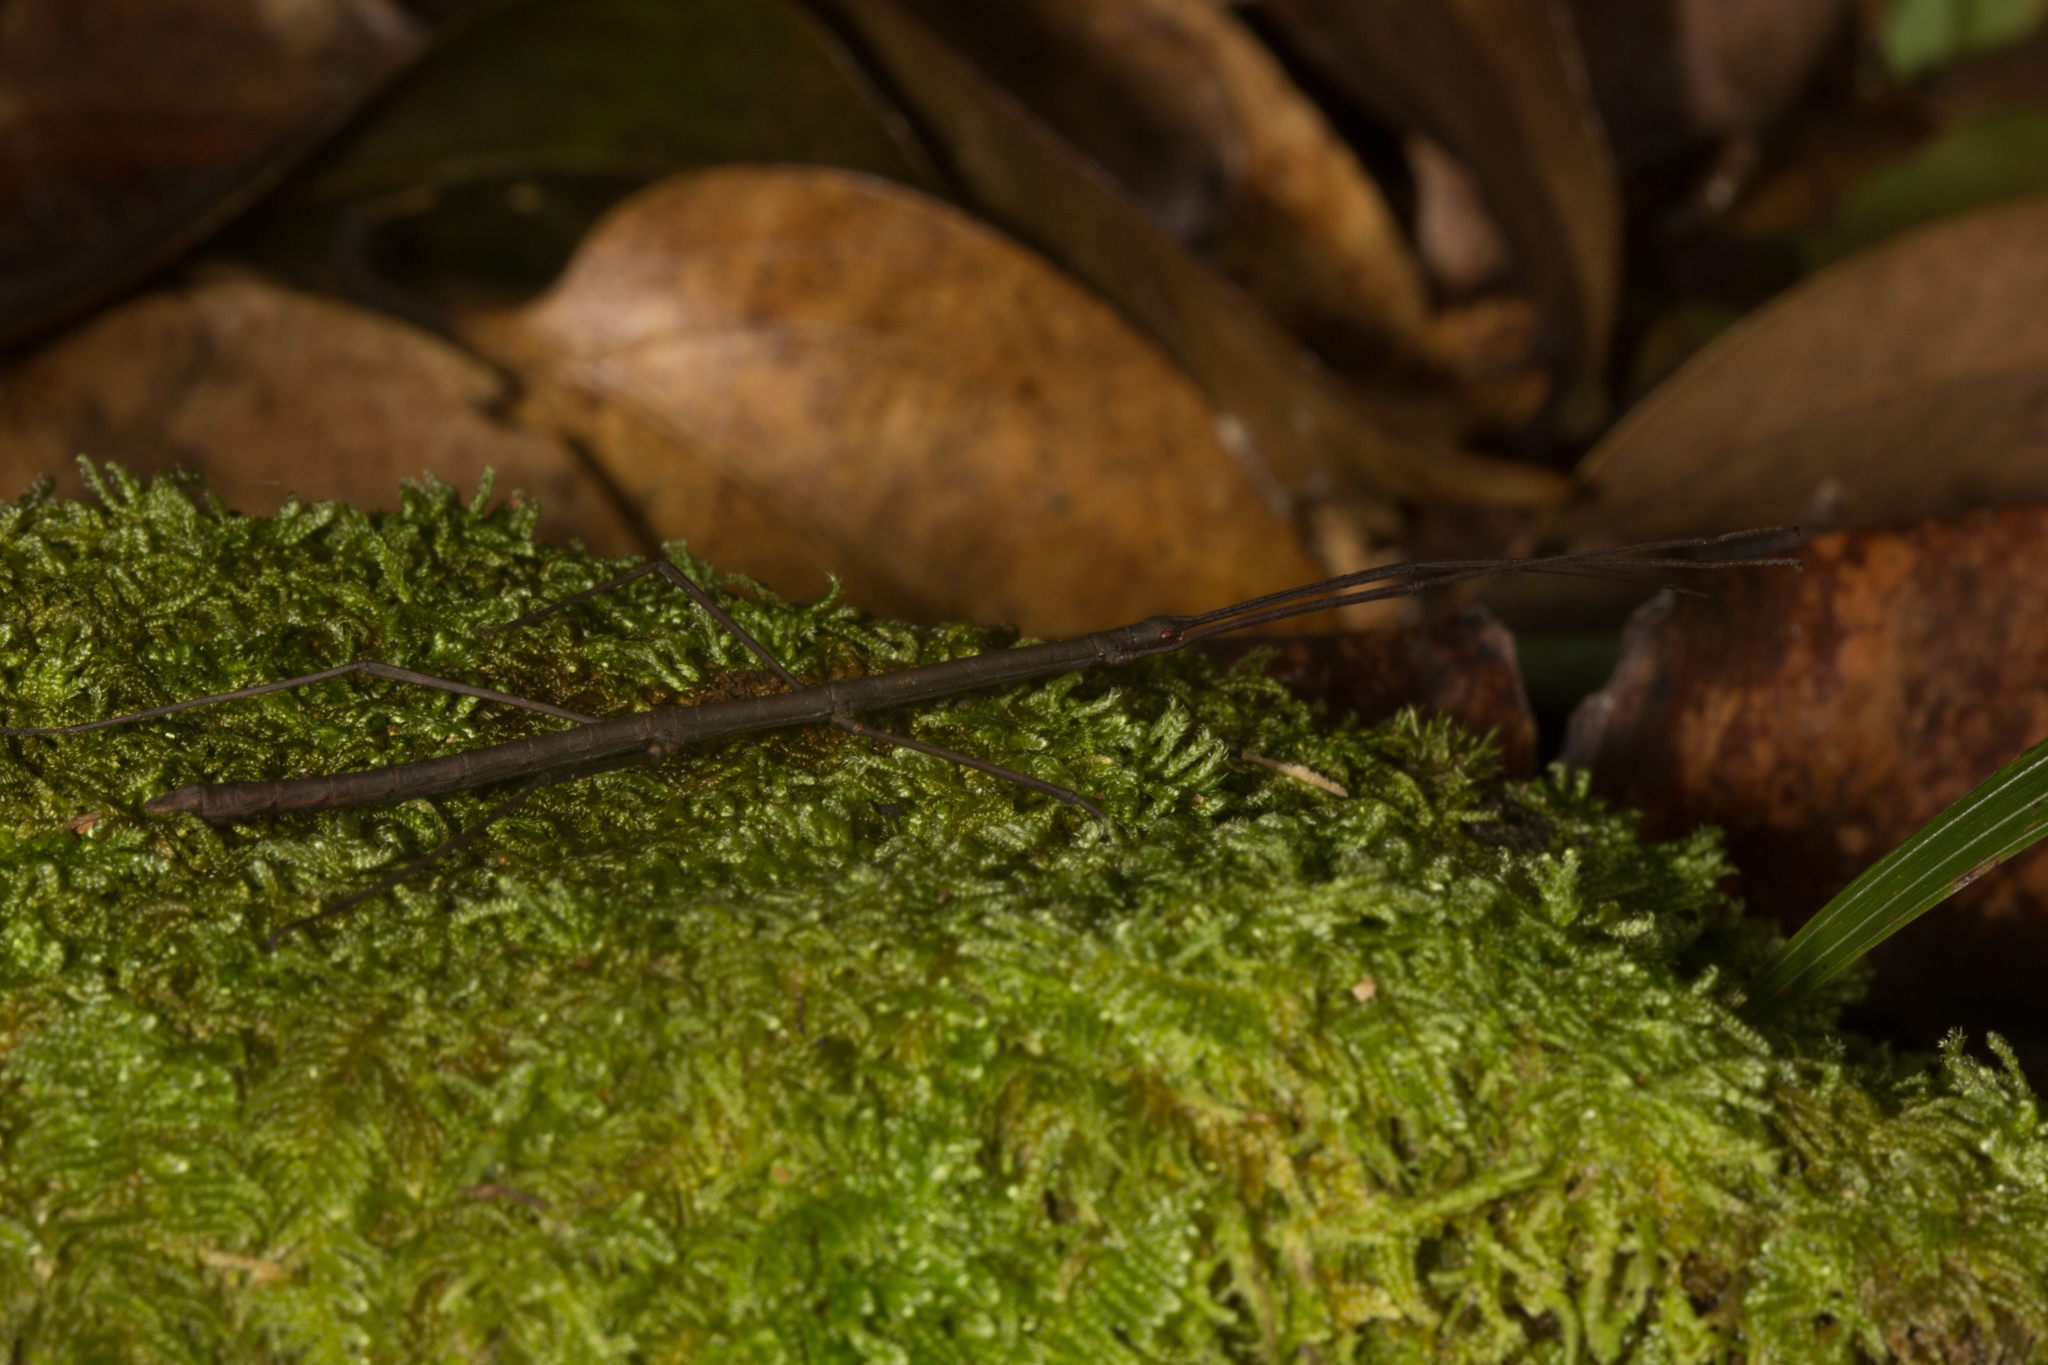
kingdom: Animalia
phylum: Arthropoda
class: Insecta
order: Phasmida
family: Lonchodidae
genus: Carausius
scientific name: Carausius gardineri
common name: Gardiner's stick insect
